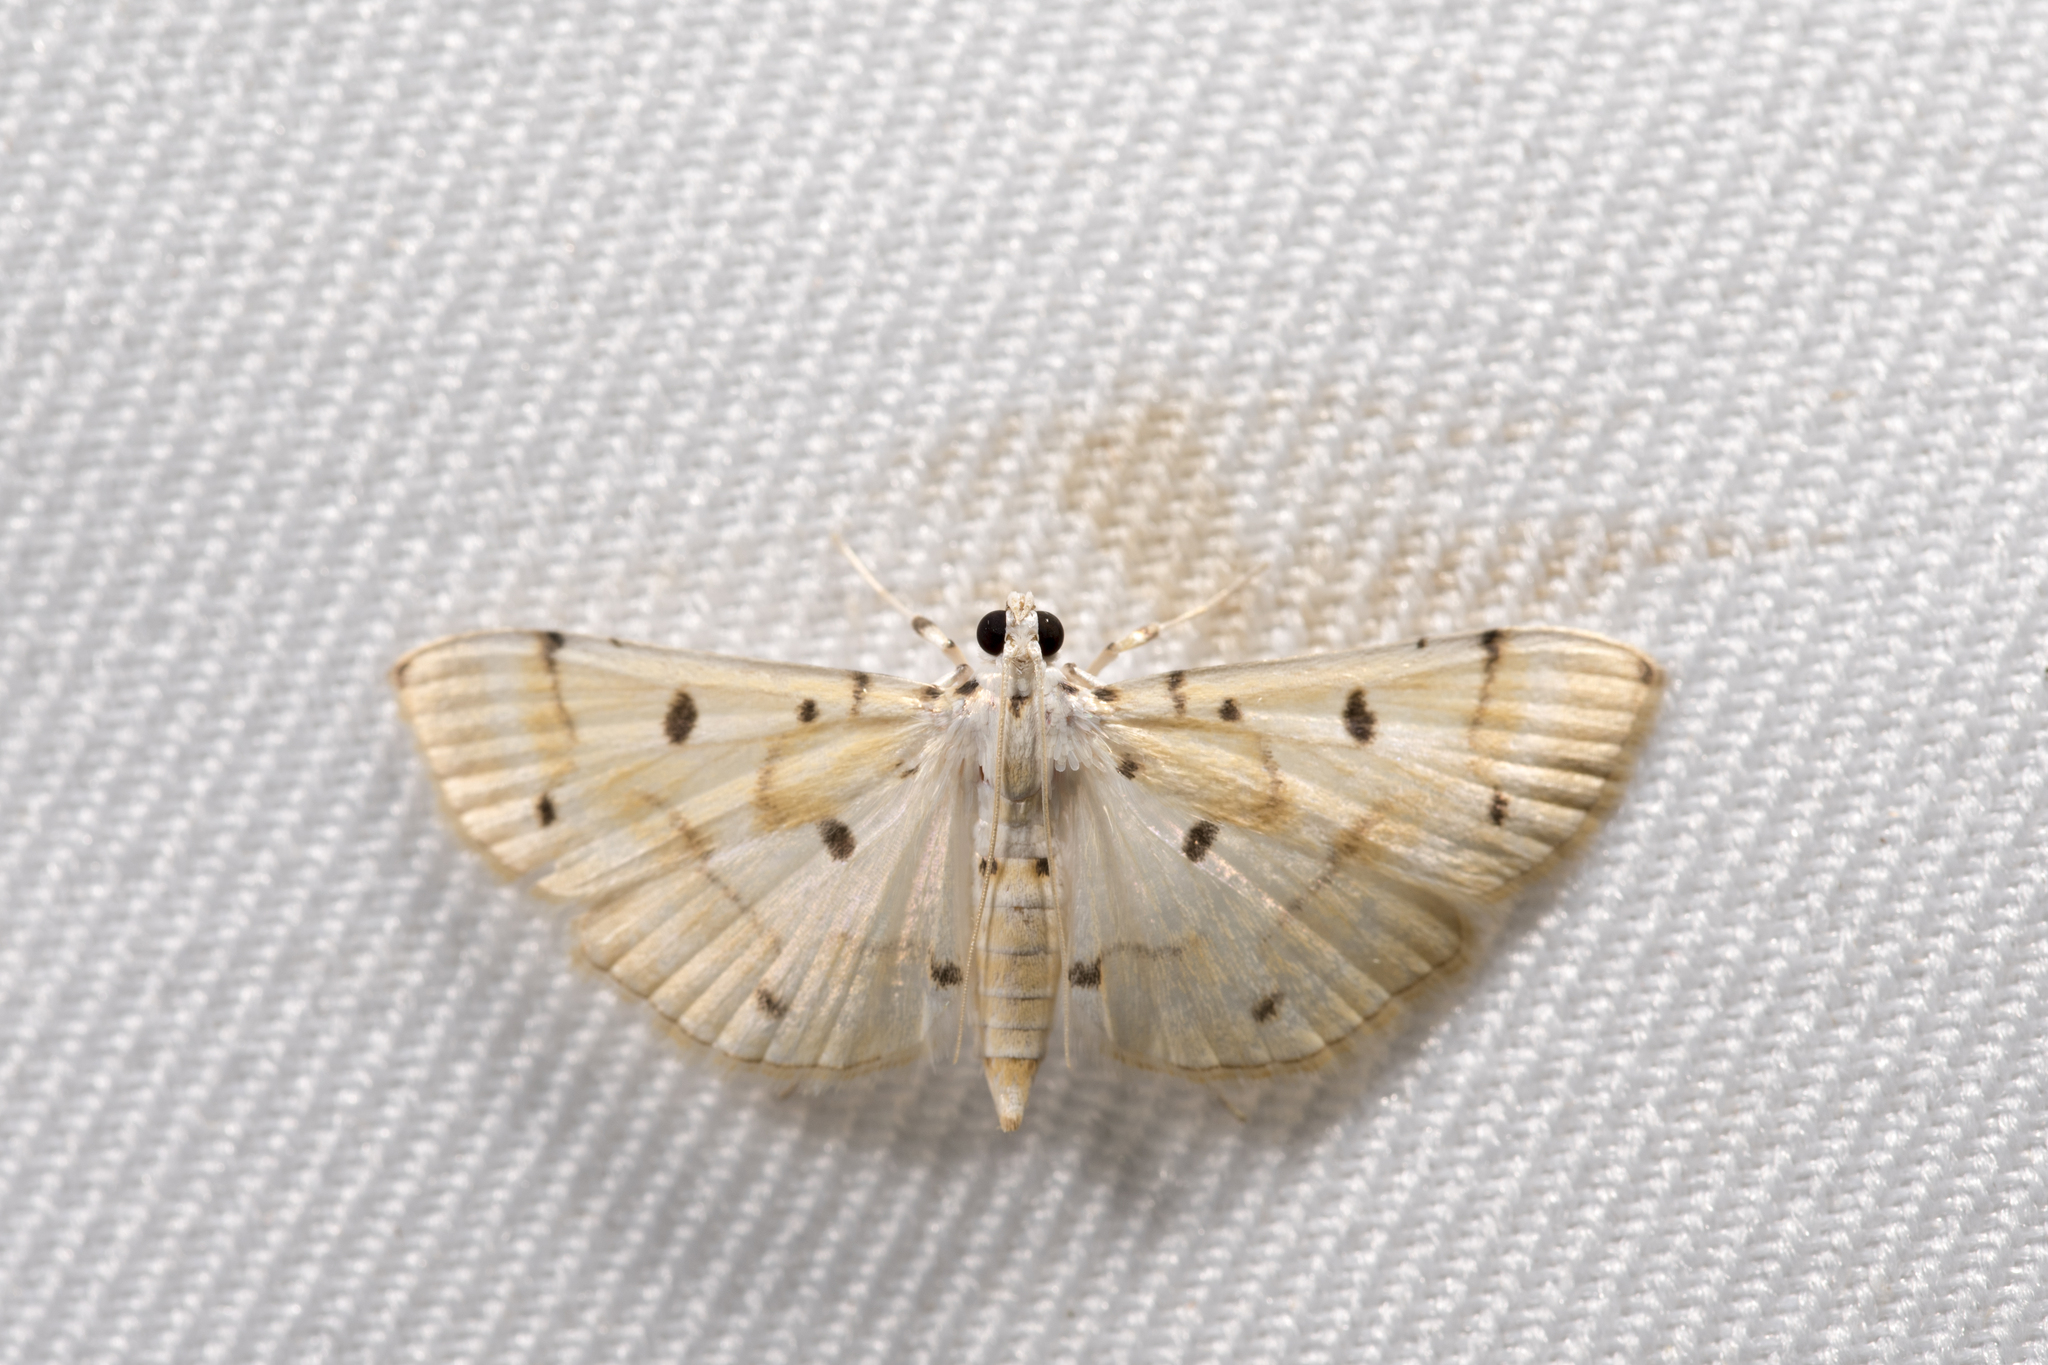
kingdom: Animalia
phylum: Arthropoda
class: Insecta
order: Lepidoptera
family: Crambidae
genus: Pycnarmon
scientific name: Pycnarmon aeriferalis
